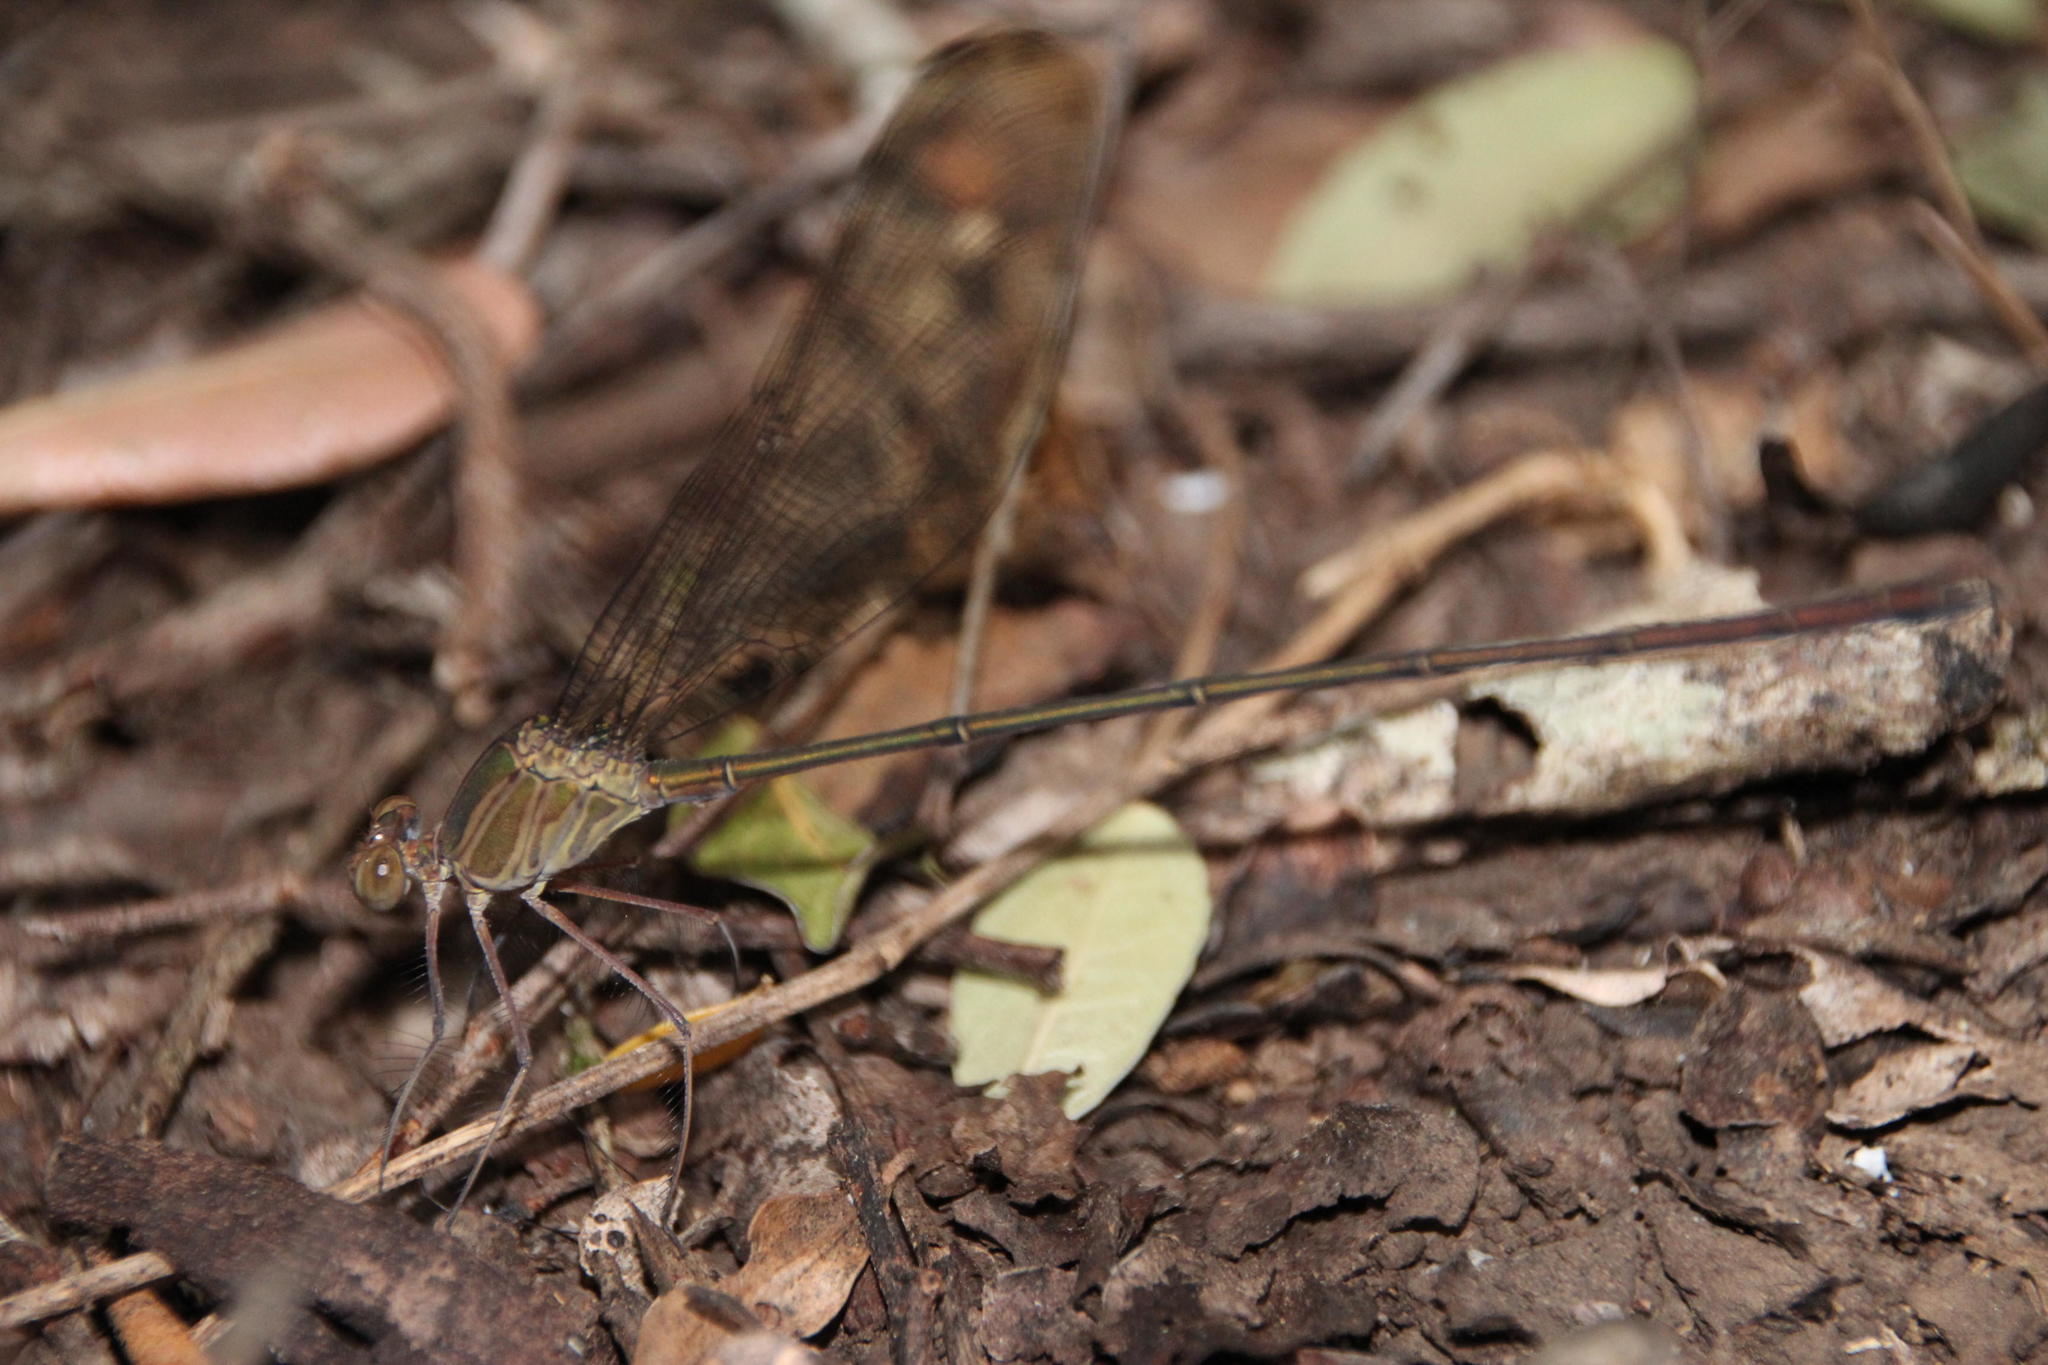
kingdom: Animalia
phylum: Arthropoda
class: Insecta
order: Odonata
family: Calopterygidae
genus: Phaon
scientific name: Phaon iridipennis
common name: Glistening demoiselle
